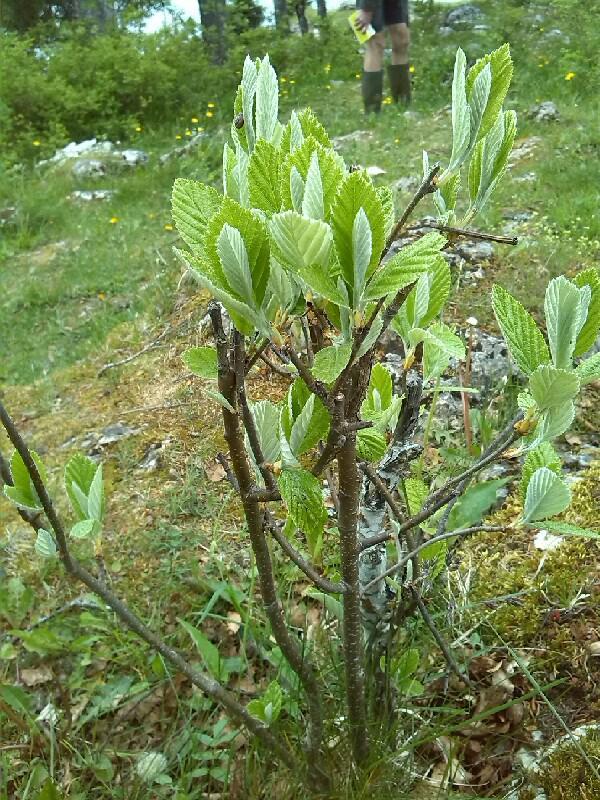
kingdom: Plantae
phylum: Tracheophyta
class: Magnoliopsida
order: Rosales
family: Rosaceae
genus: Aria
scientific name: Aria edulis
